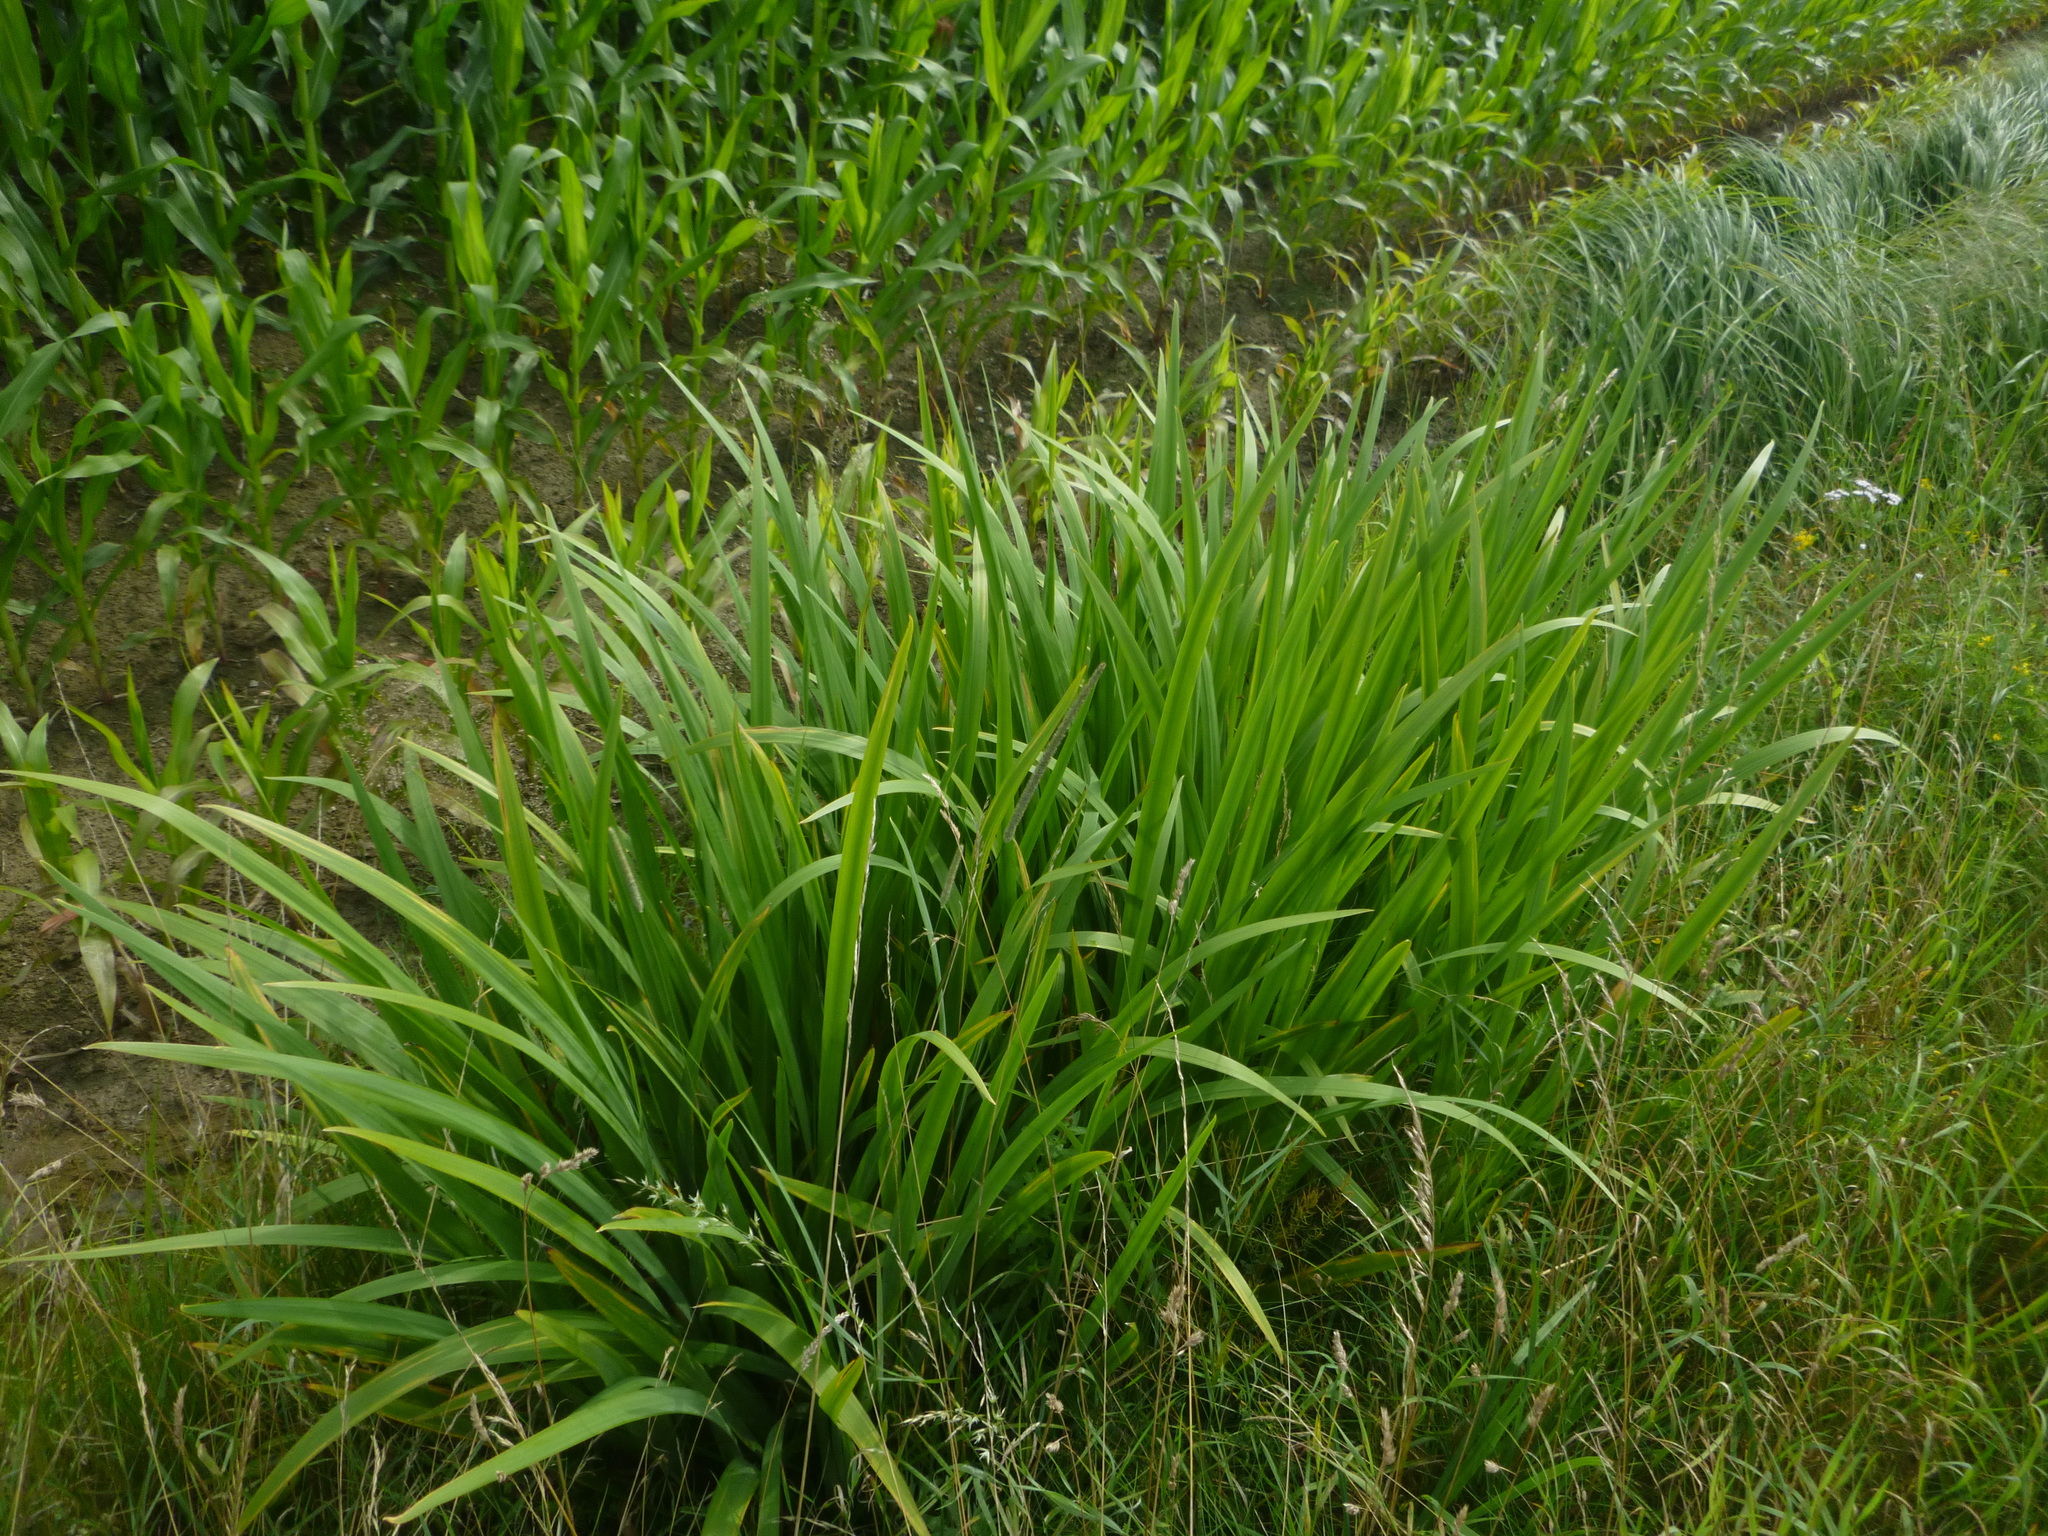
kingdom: Plantae
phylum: Tracheophyta
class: Liliopsida
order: Asparagales
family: Iridaceae
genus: Iris
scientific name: Iris pseudacorus
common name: Yellow flag
